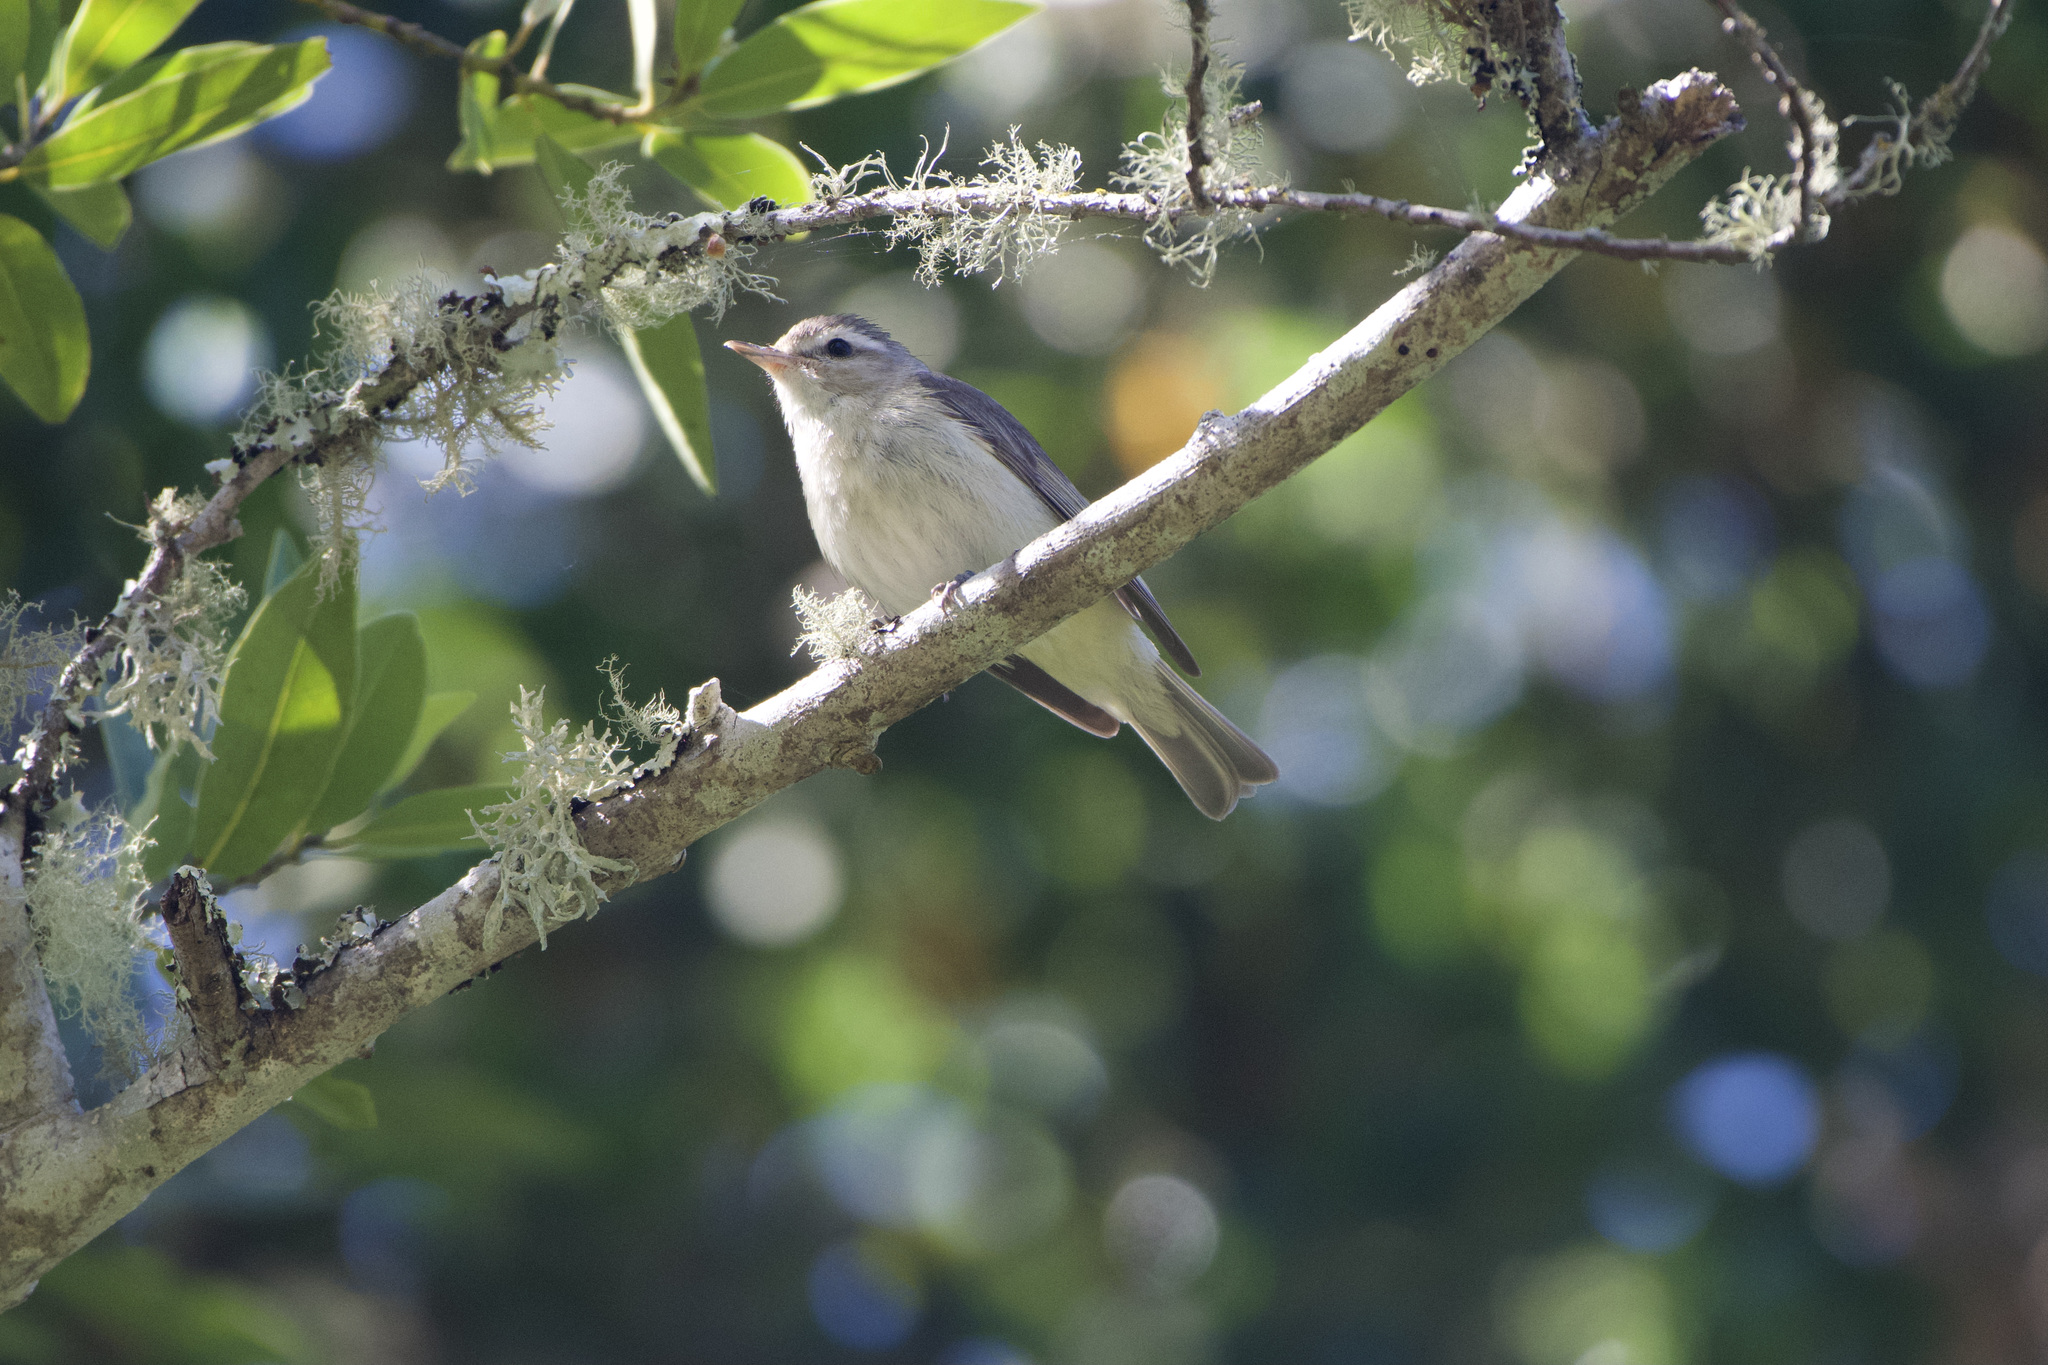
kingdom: Animalia
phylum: Chordata
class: Aves
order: Passeriformes
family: Vireonidae
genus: Vireo
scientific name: Vireo gilvus
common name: Warbling vireo
